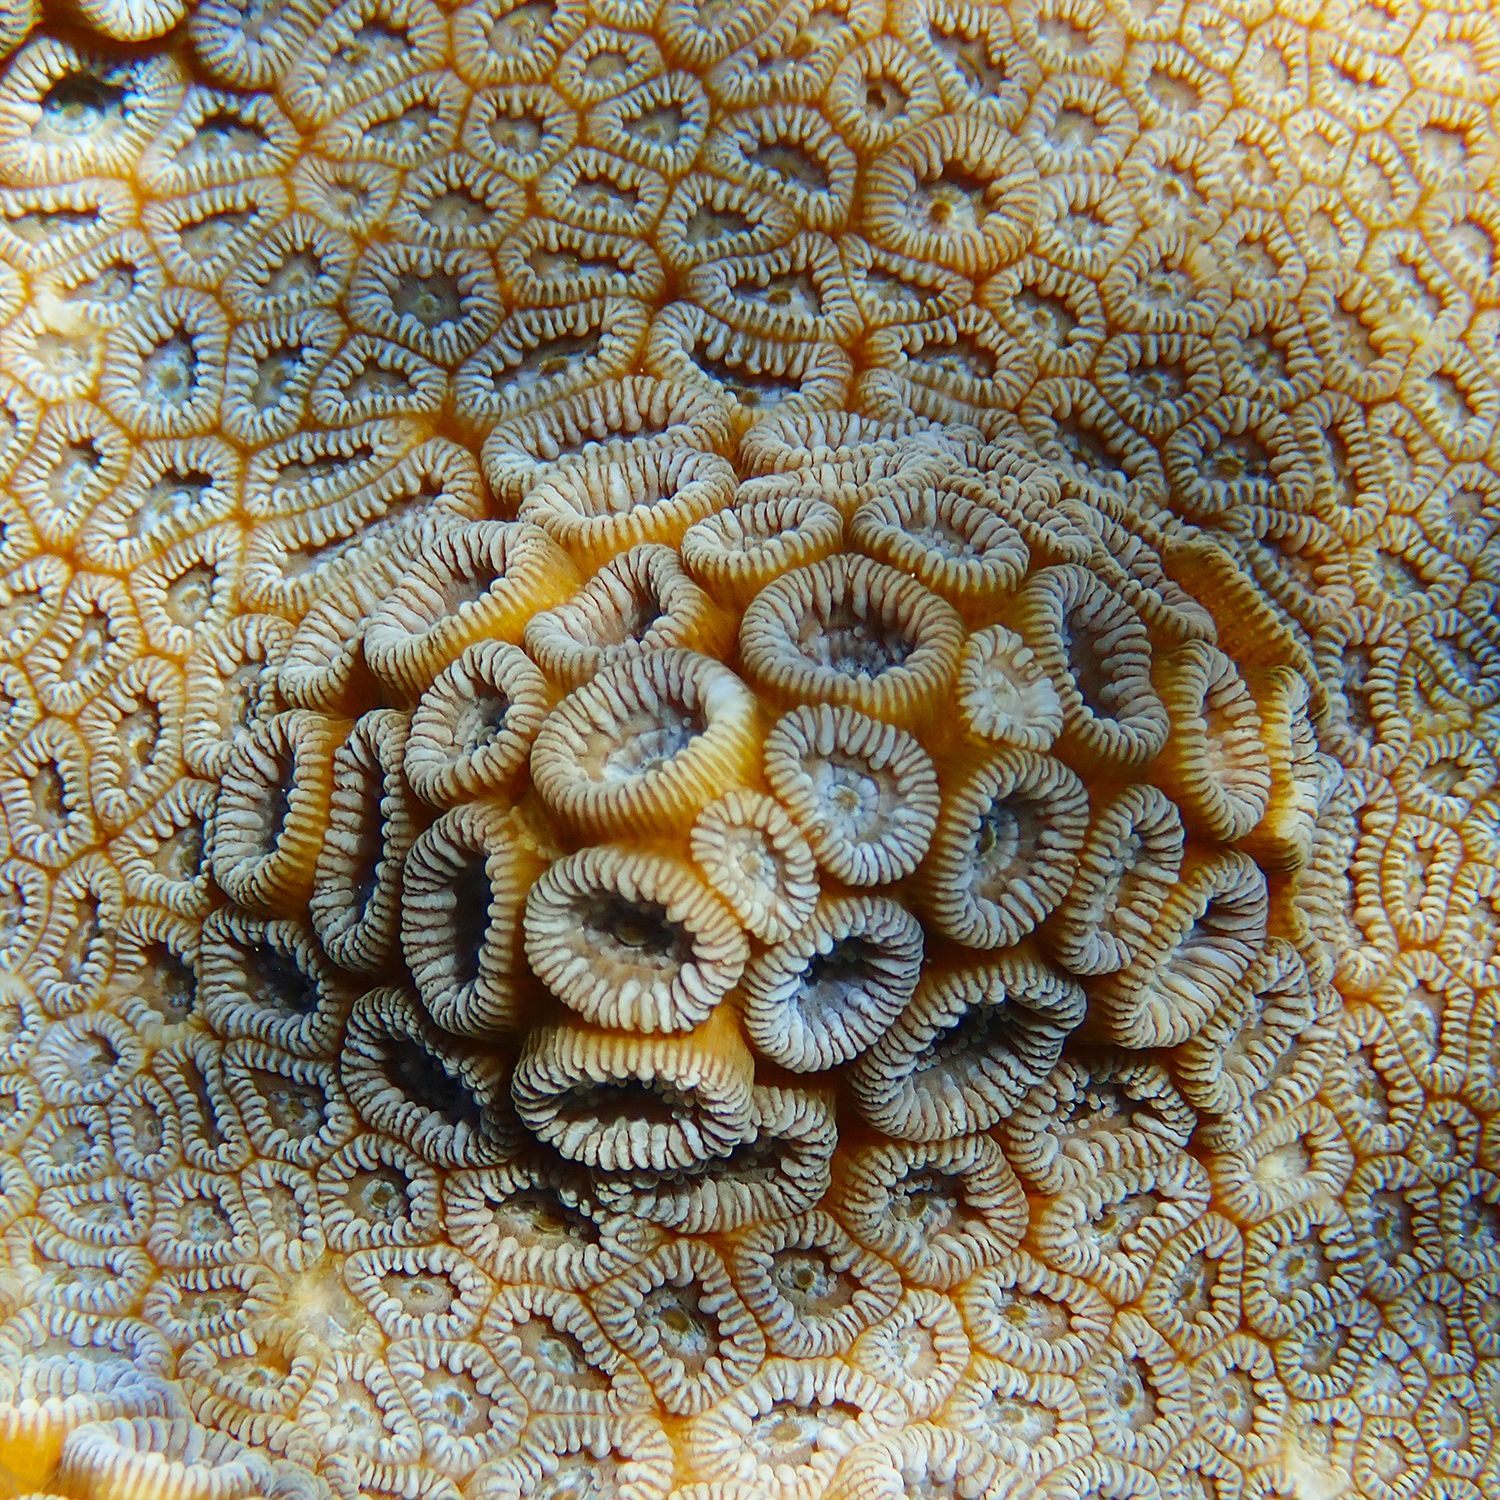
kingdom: Animalia
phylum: Cnidaria
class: Anthozoa
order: Scleractinia
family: Merulinidae
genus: Astrea
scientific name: Astrea curta
